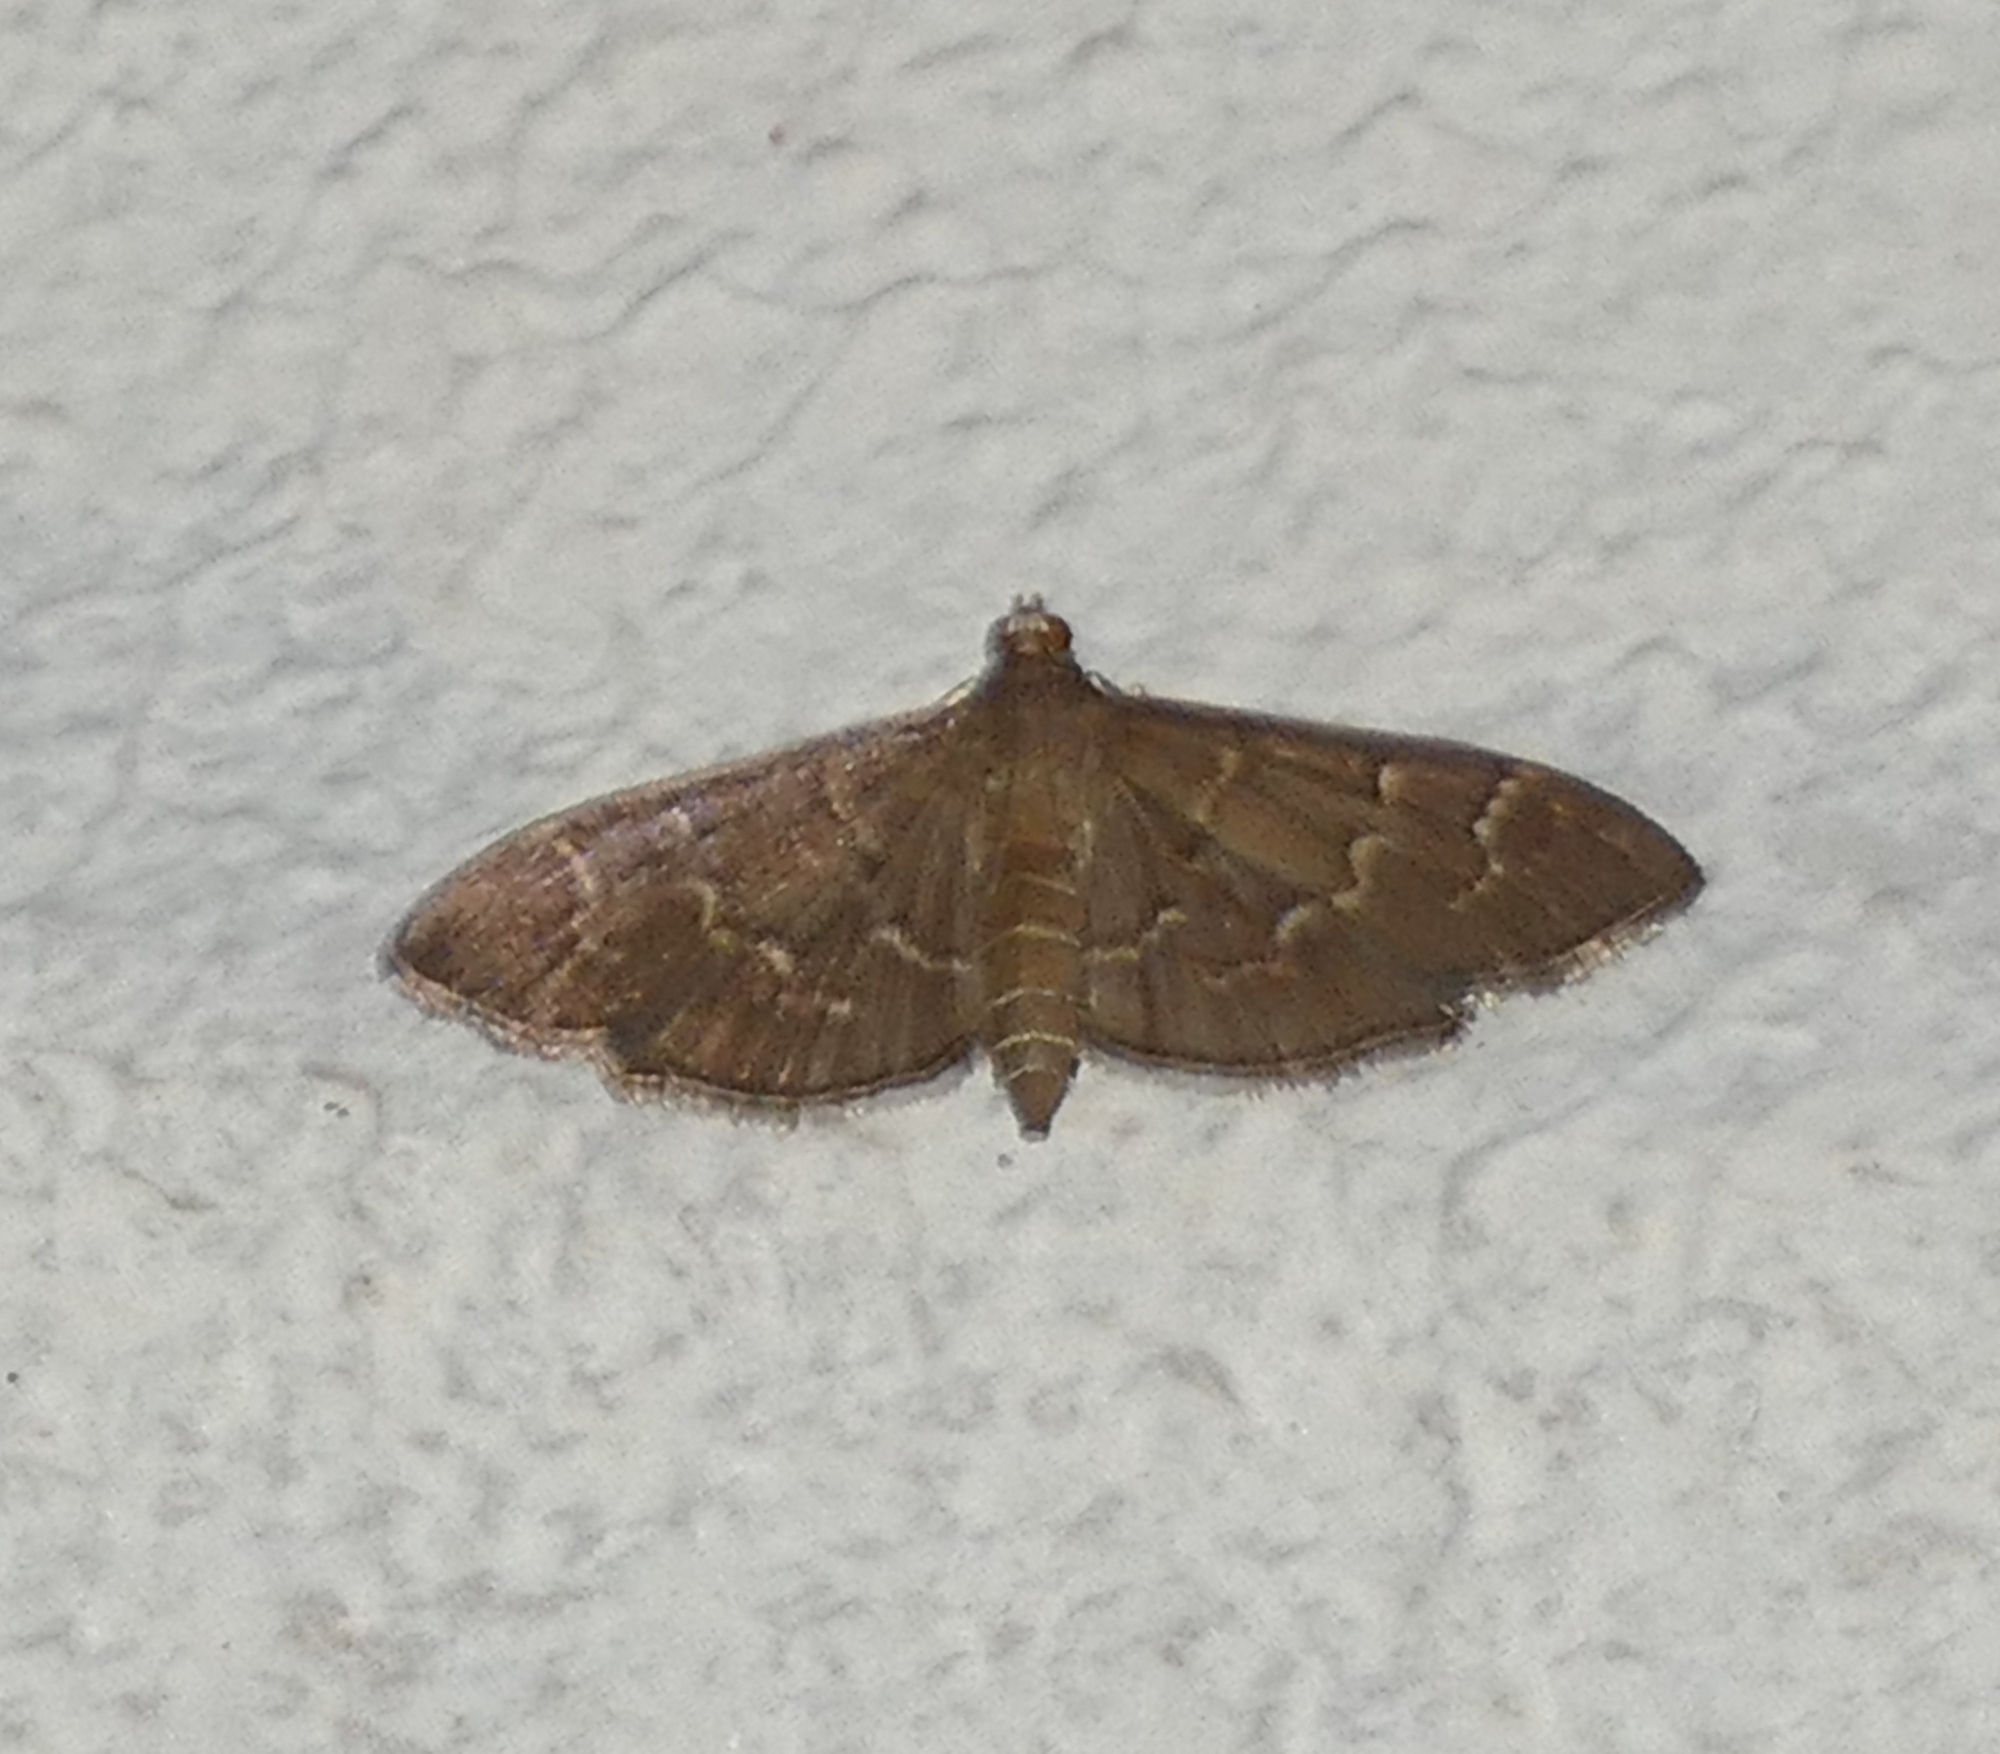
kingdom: Animalia
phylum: Arthropoda
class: Insecta
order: Lepidoptera
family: Crambidae
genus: Pilocrocis
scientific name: Pilocrocis ramentalis
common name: Scraped pilocrocis
